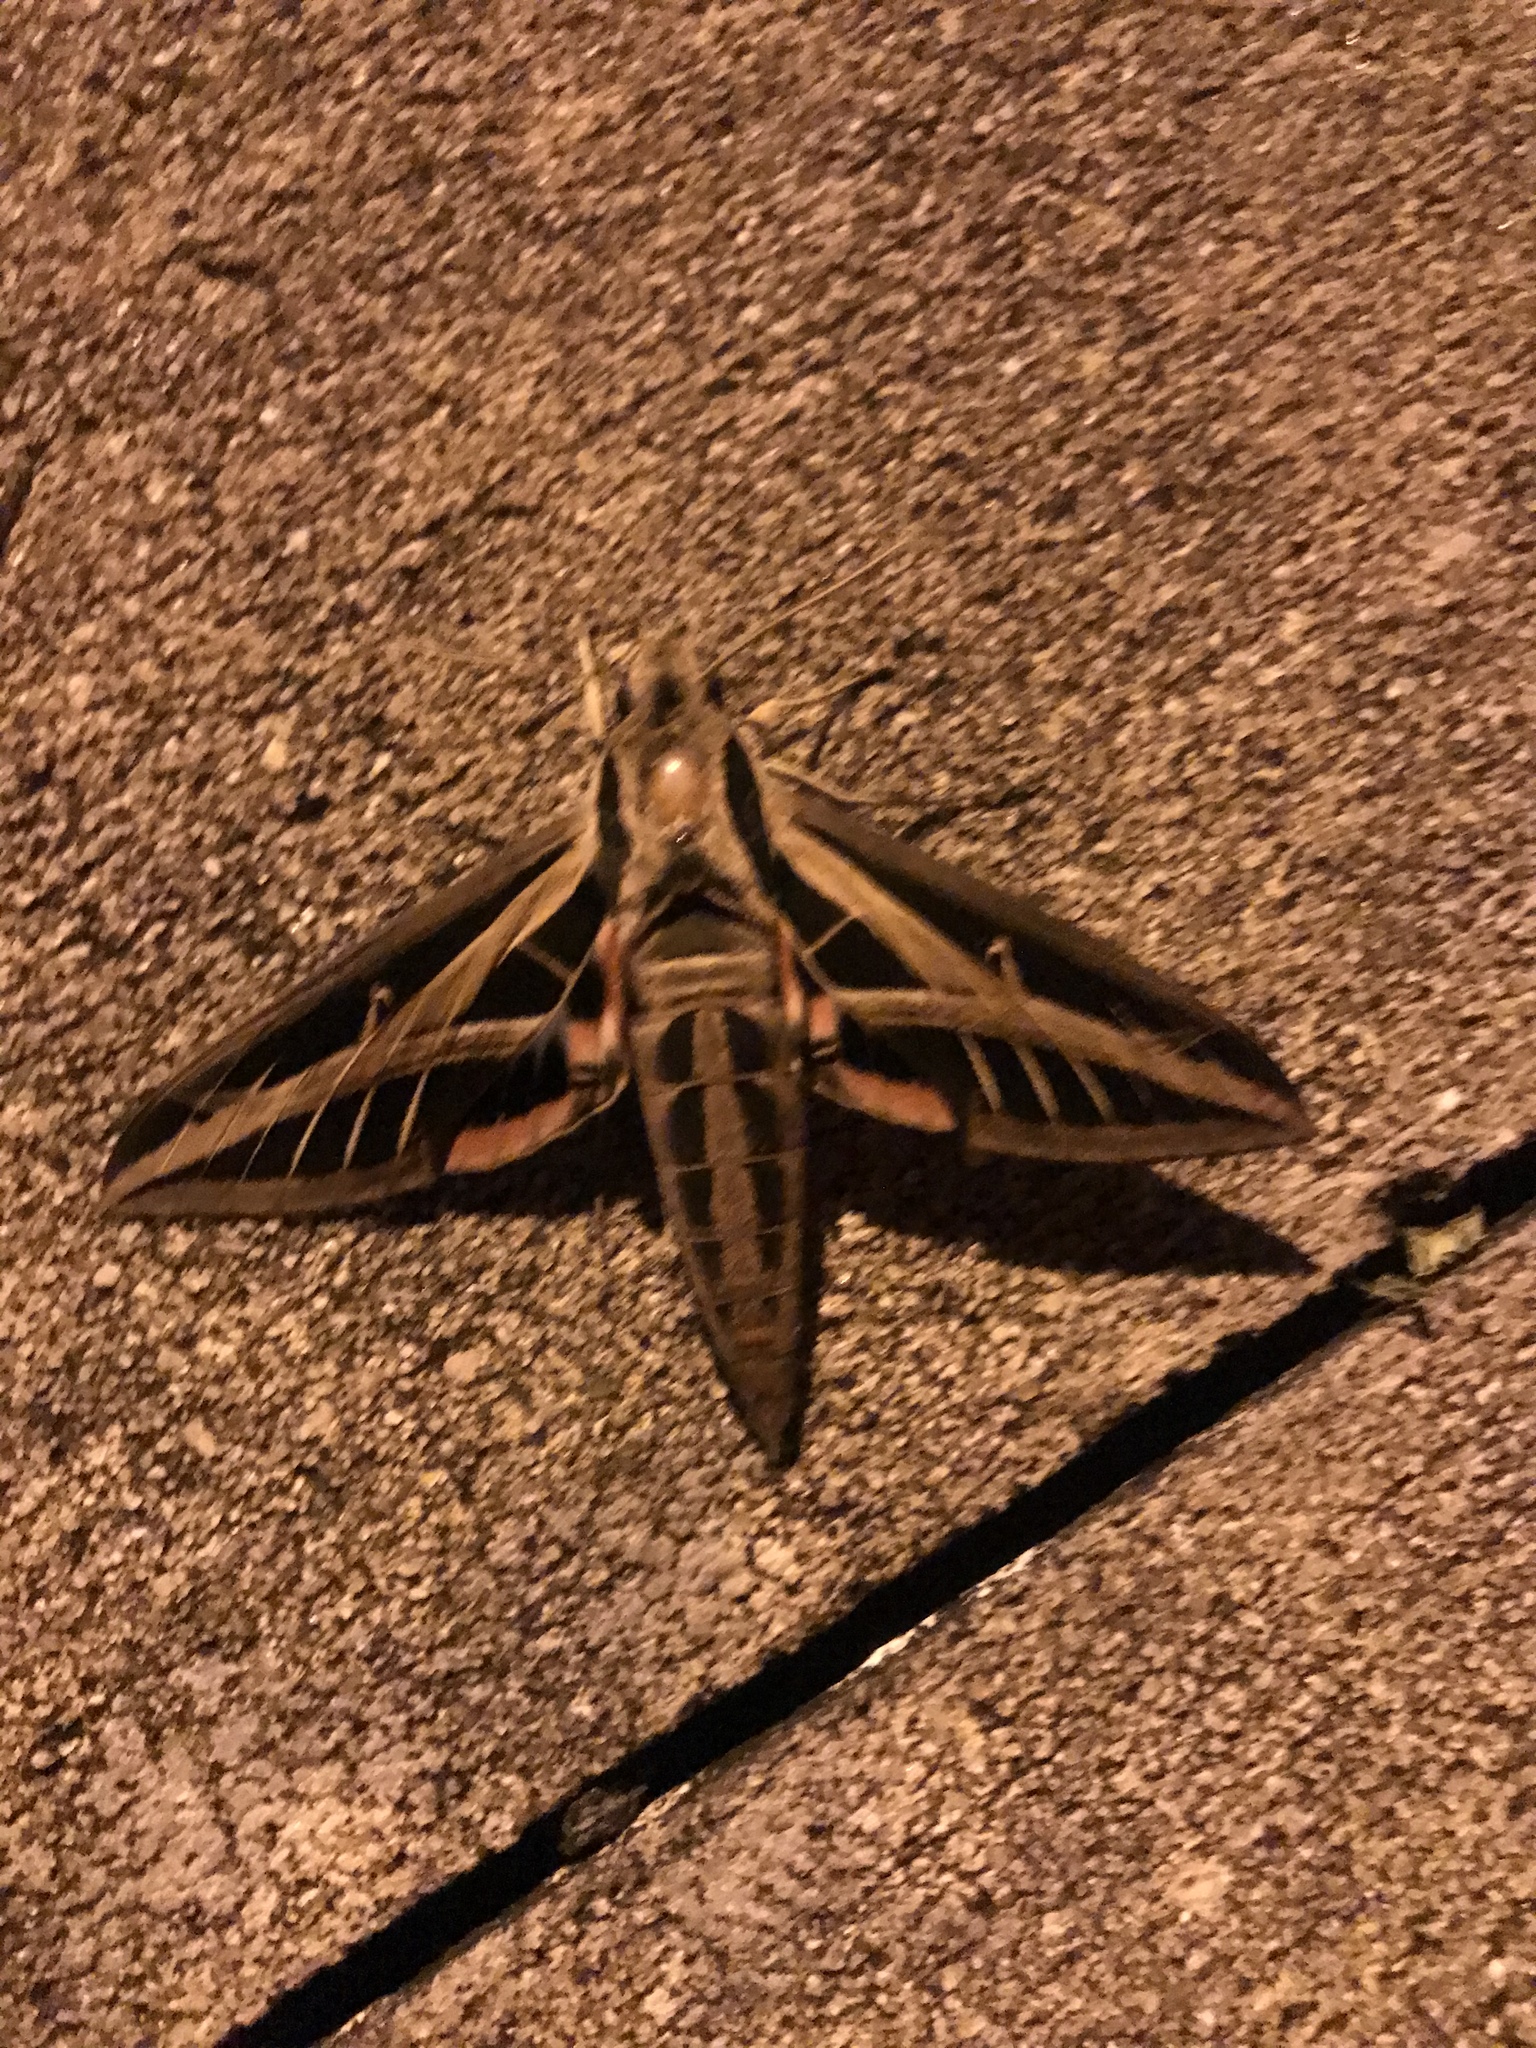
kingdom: Animalia
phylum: Arthropoda
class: Insecta
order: Lepidoptera
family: Sphingidae
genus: Eumorpha
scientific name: Eumorpha fasciatus
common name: Banded sphinx
